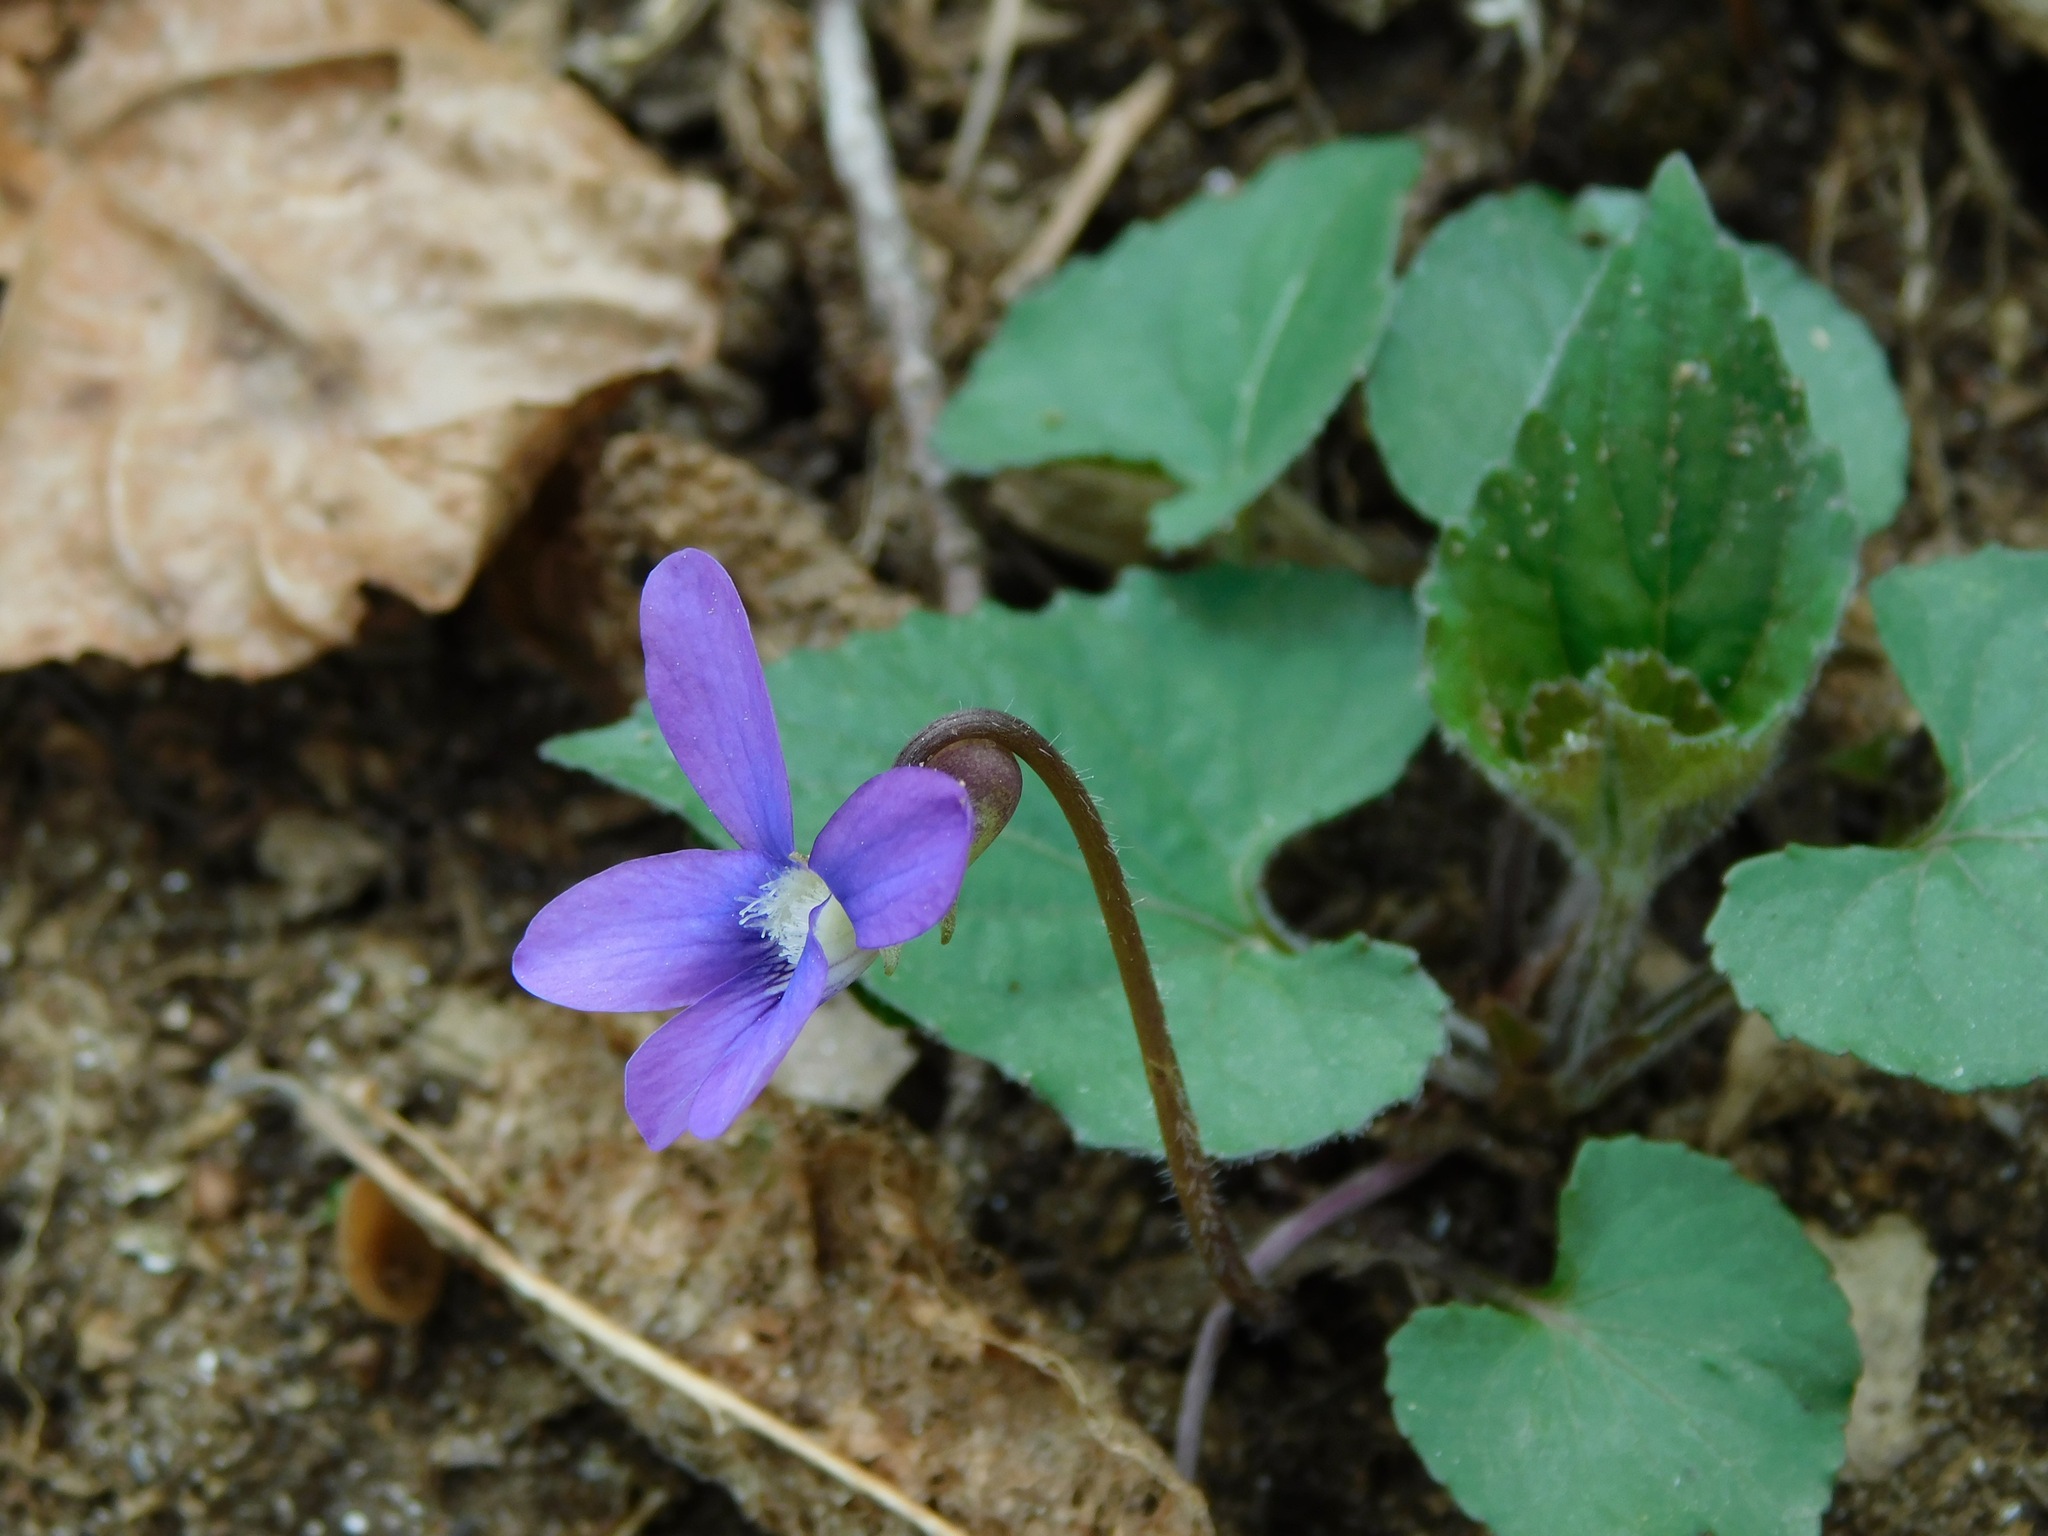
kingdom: Plantae
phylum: Tracheophyta
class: Magnoliopsida
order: Malpighiales
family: Violaceae
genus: Viola
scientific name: Viola hirsutula
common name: Southern wood violet
